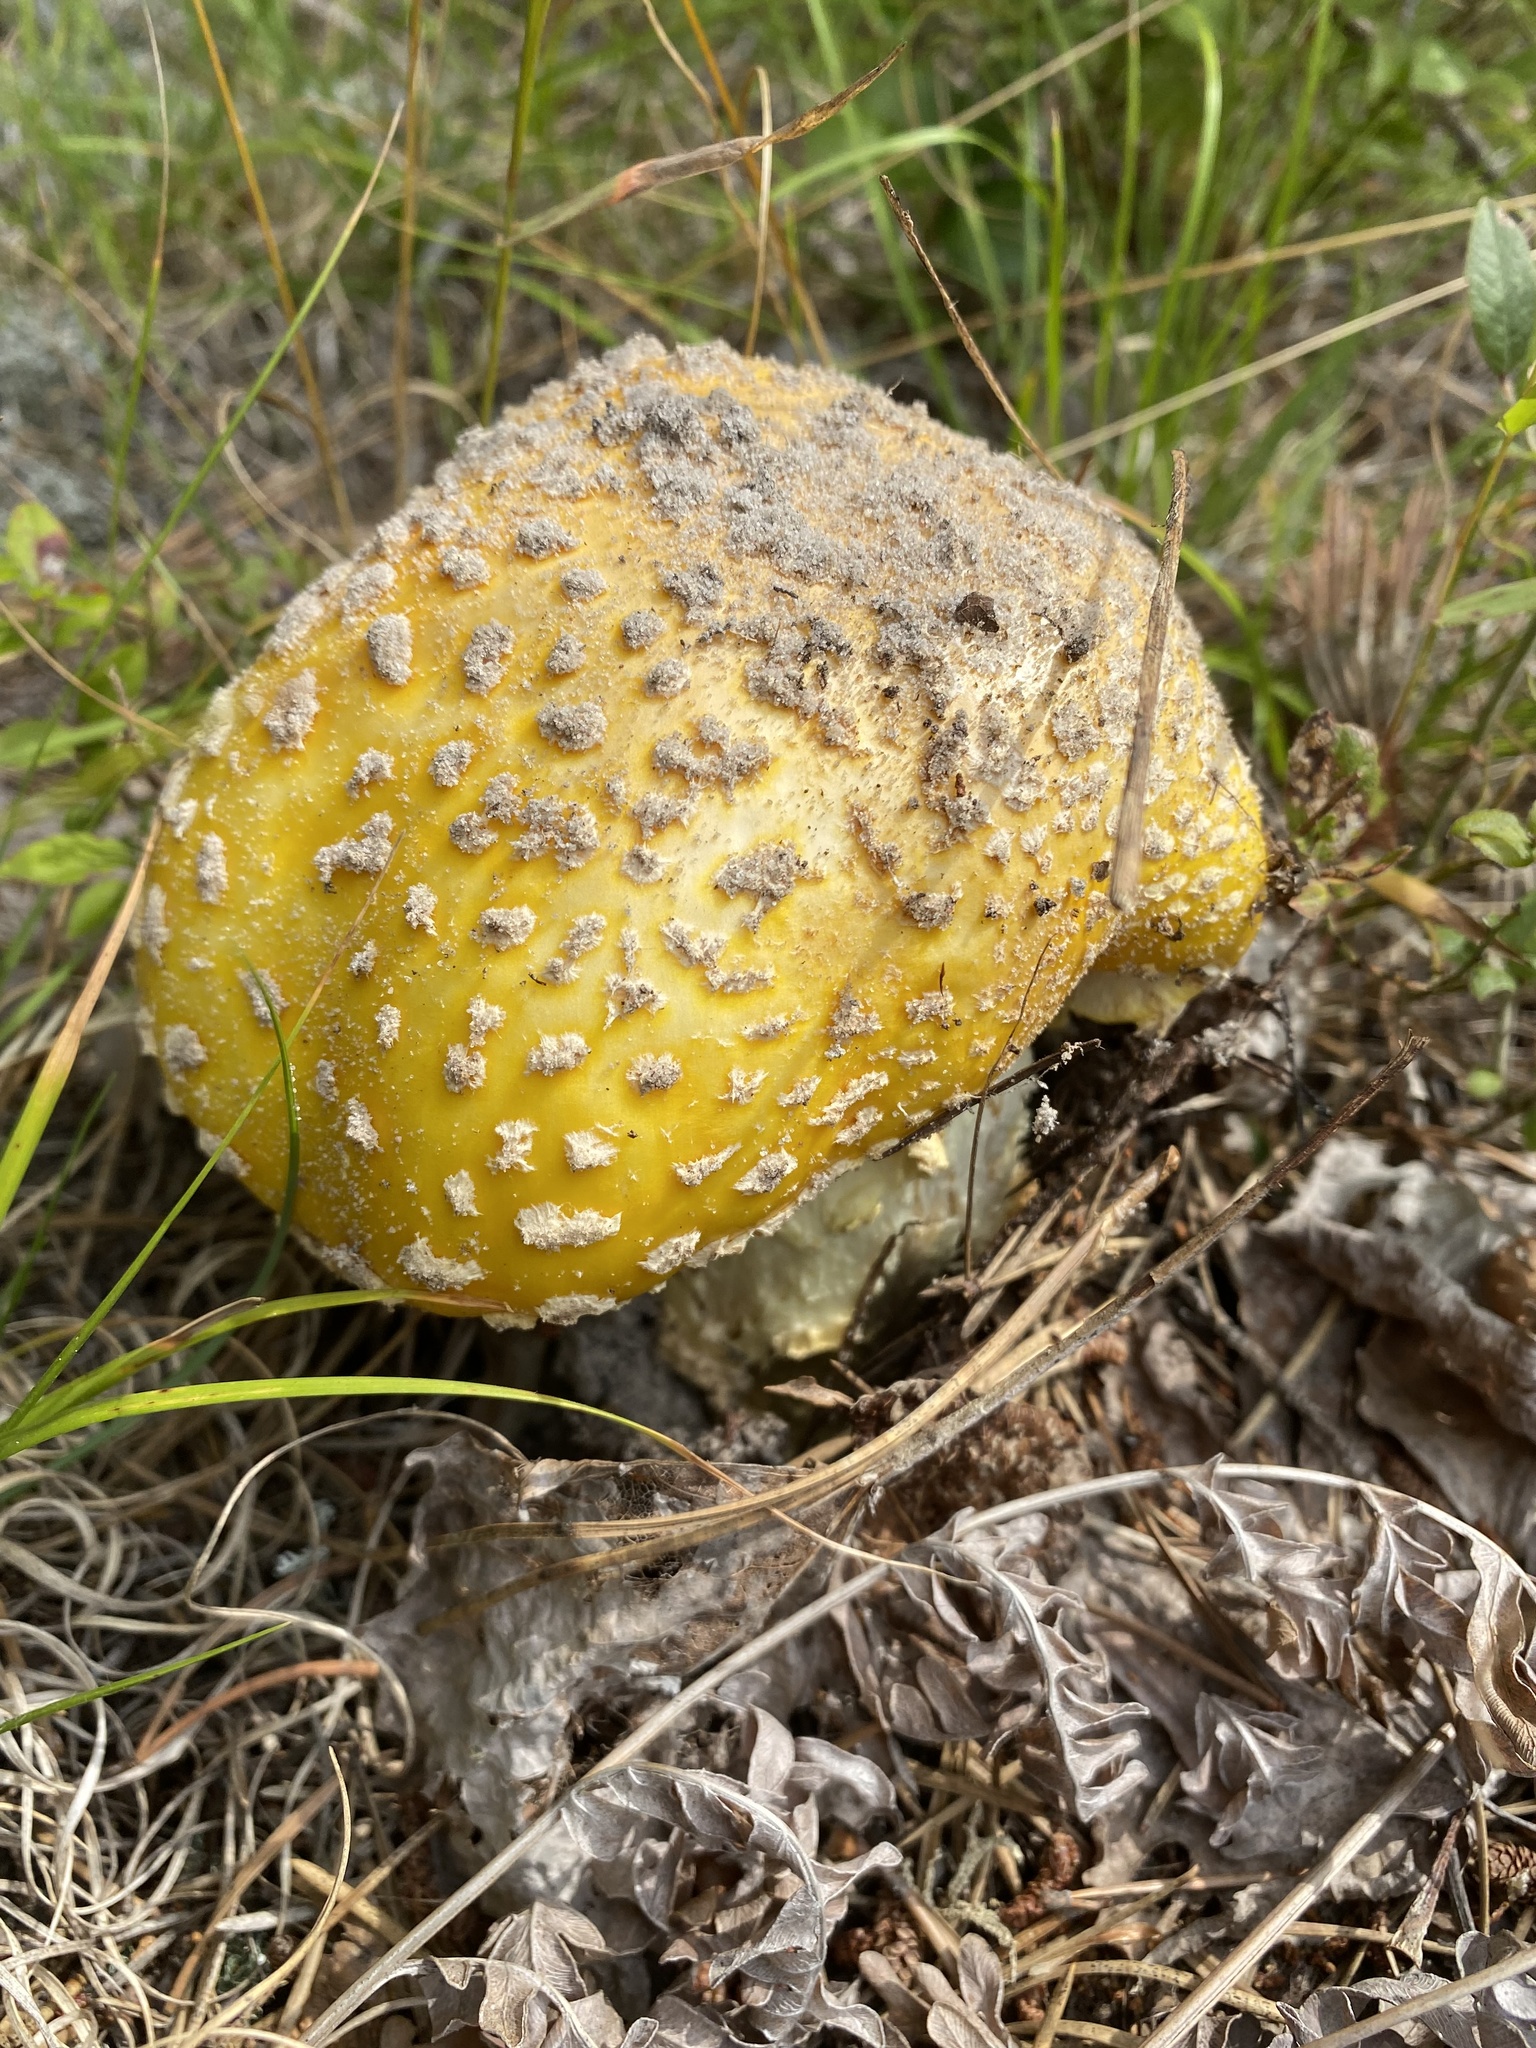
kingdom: Fungi
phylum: Basidiomycota
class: Agaricomycetes
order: Agaricales
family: Amanitaceae
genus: Amanita
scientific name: Amanita muscaria
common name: Fly agaric
